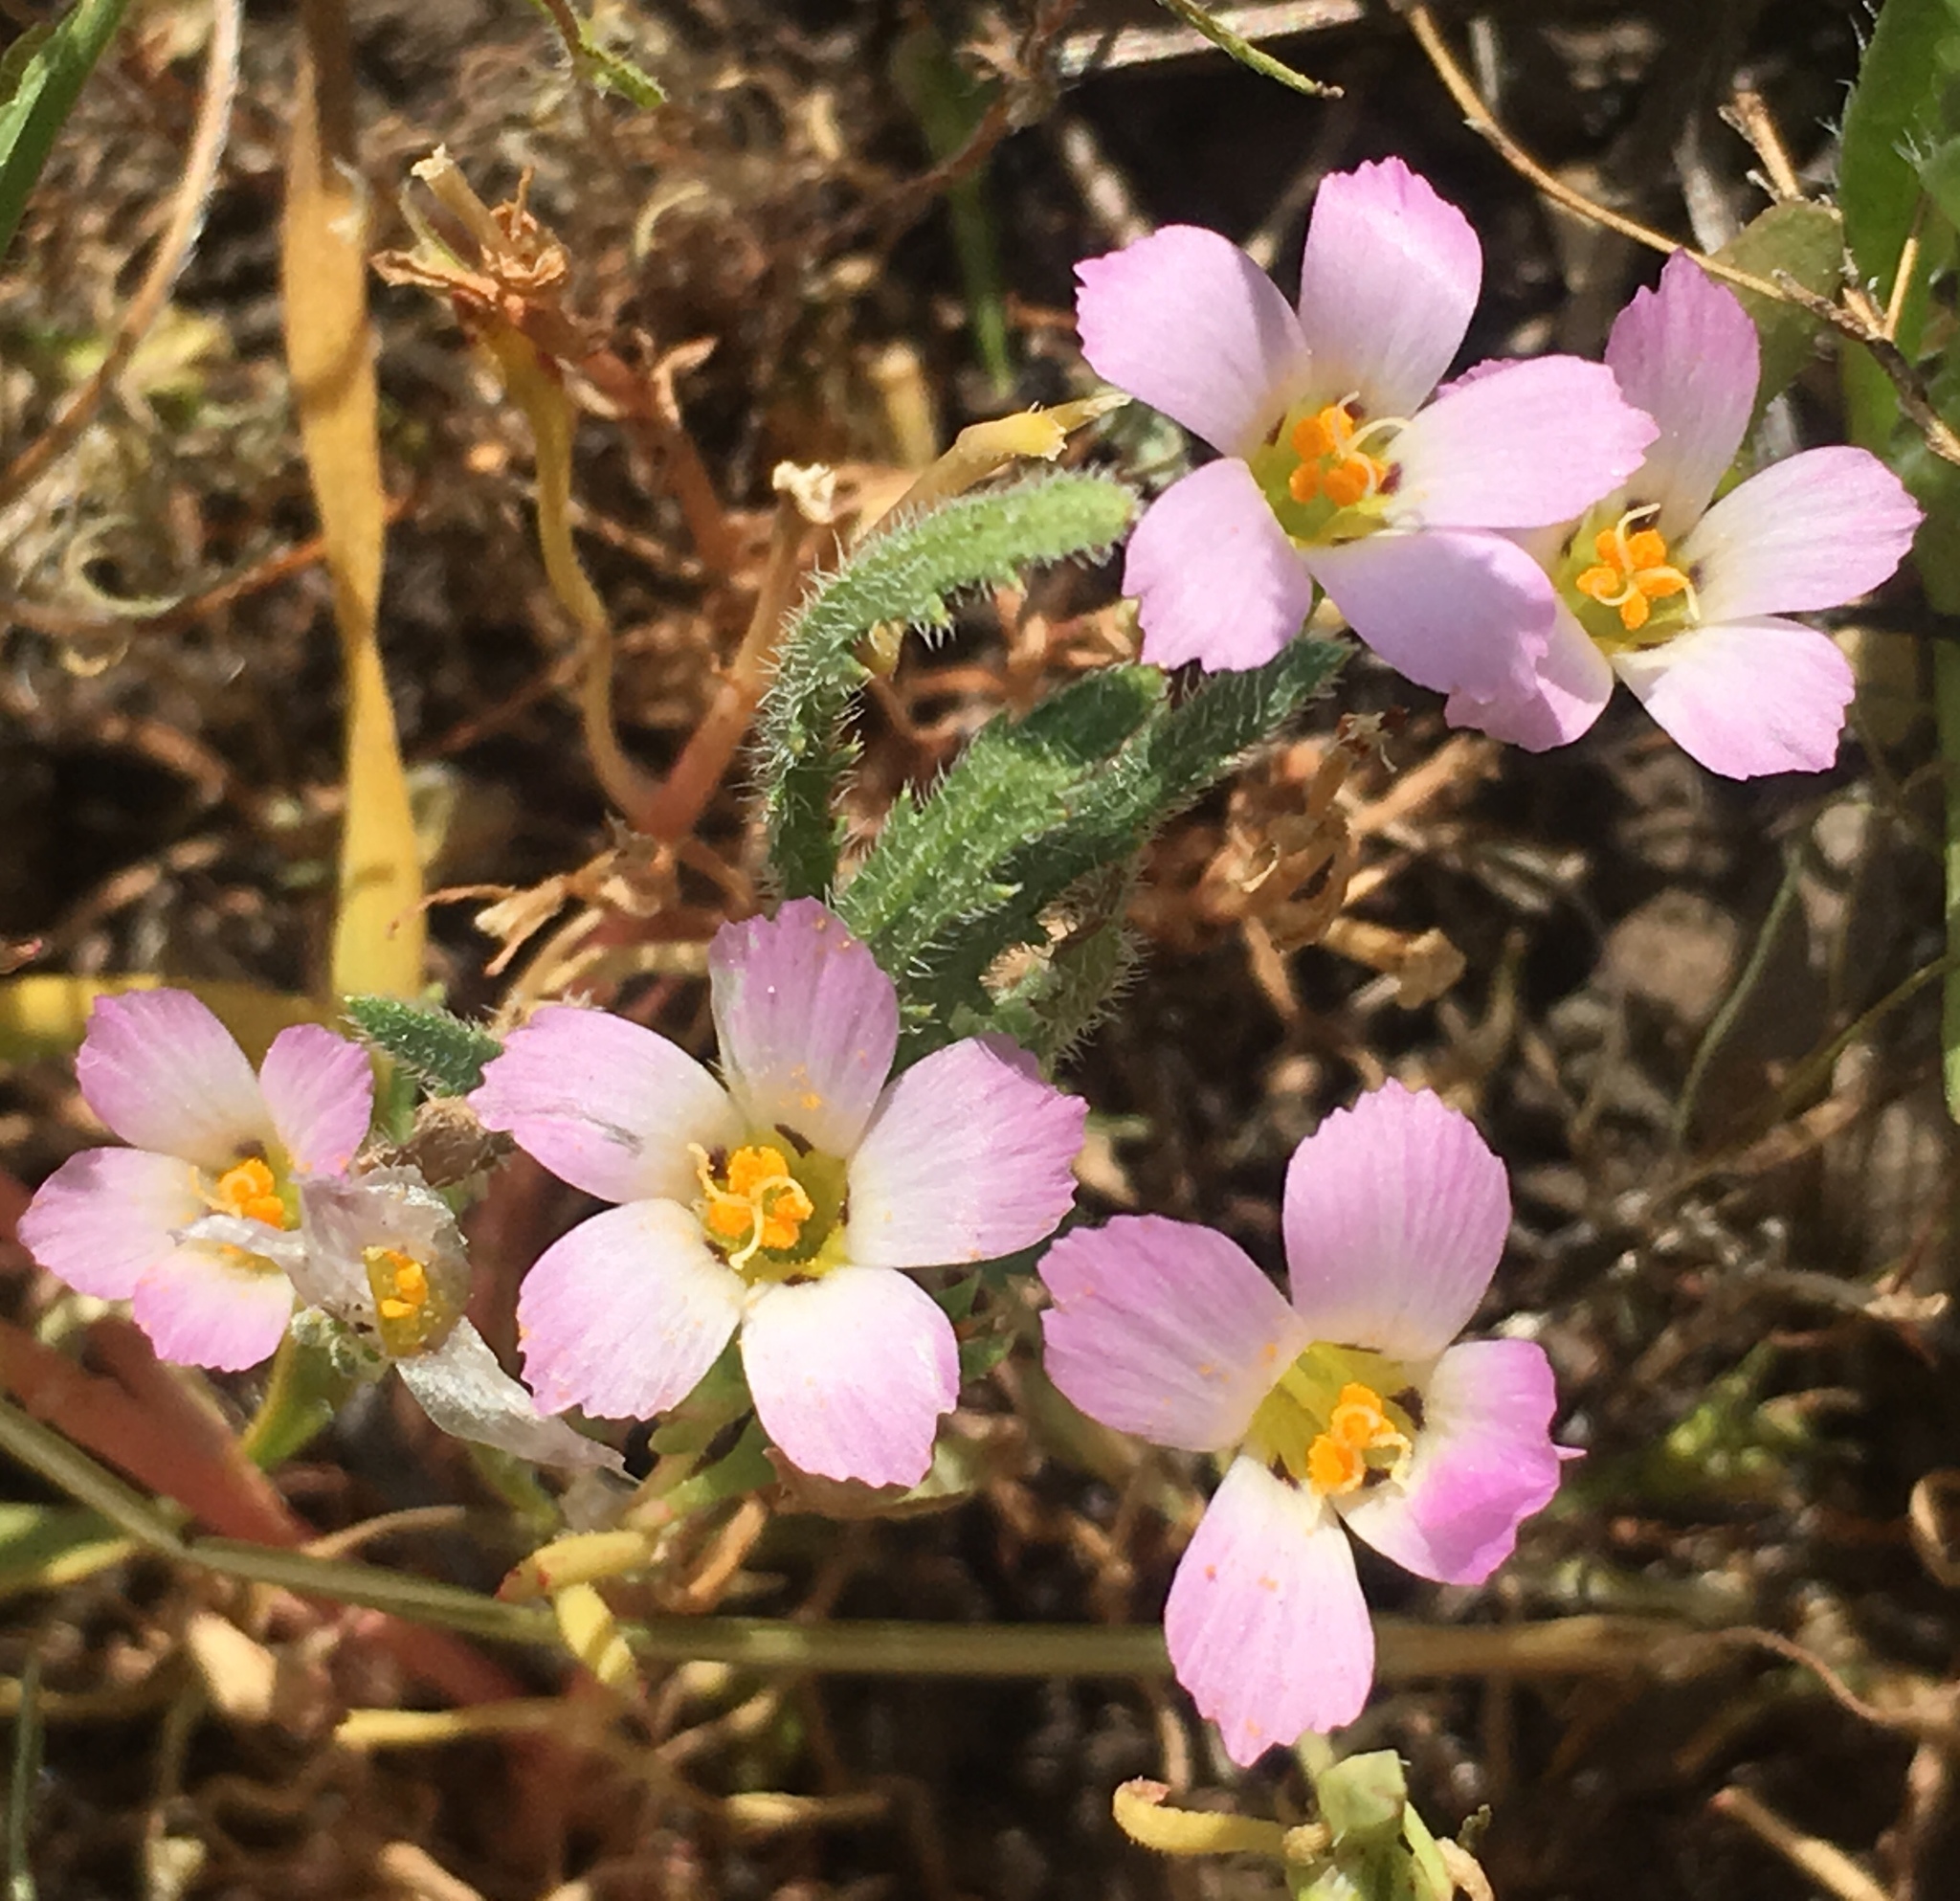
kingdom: Plantae
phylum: Tracheophyta
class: Magnoliopsida
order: Ericales
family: Polemoniaceae
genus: Linanthus
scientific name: Linanthus dianthiflorus
